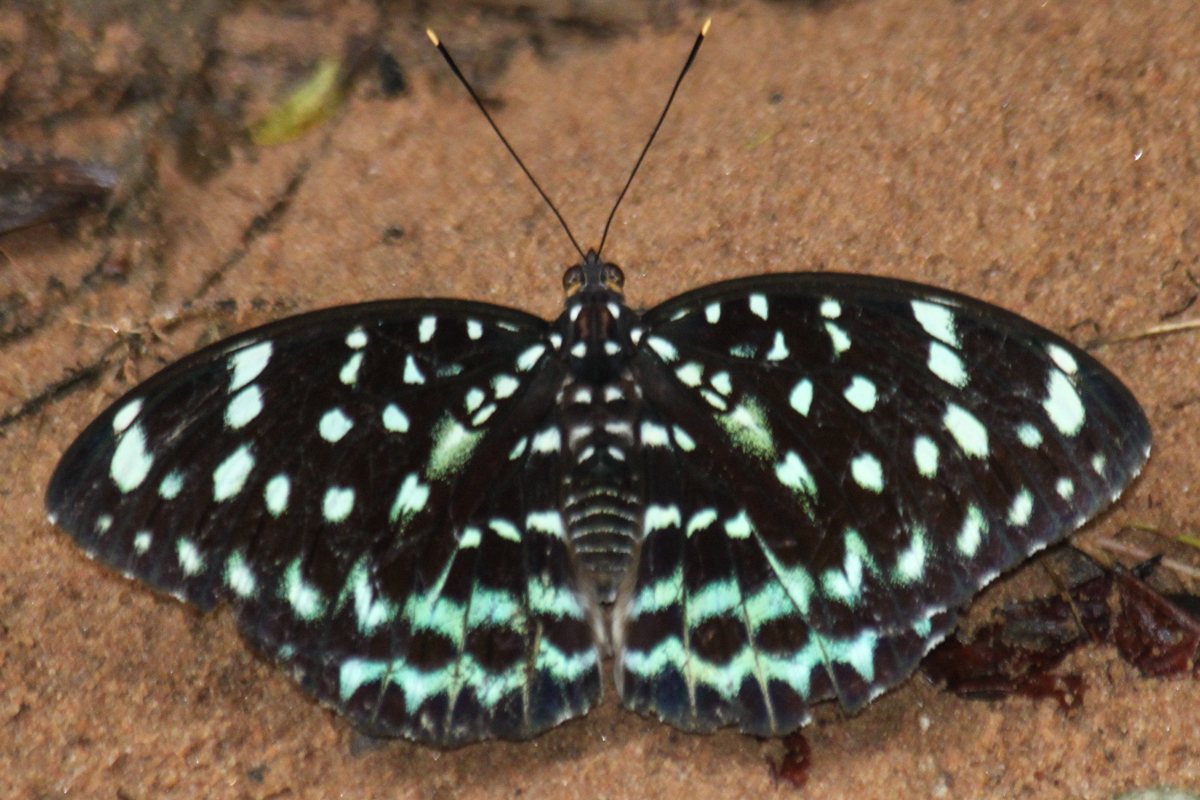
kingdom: Animalia
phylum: Arthropoda
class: Insecta
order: Lepidoptera
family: Nymphalidae
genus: Lexias
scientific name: Lexias
